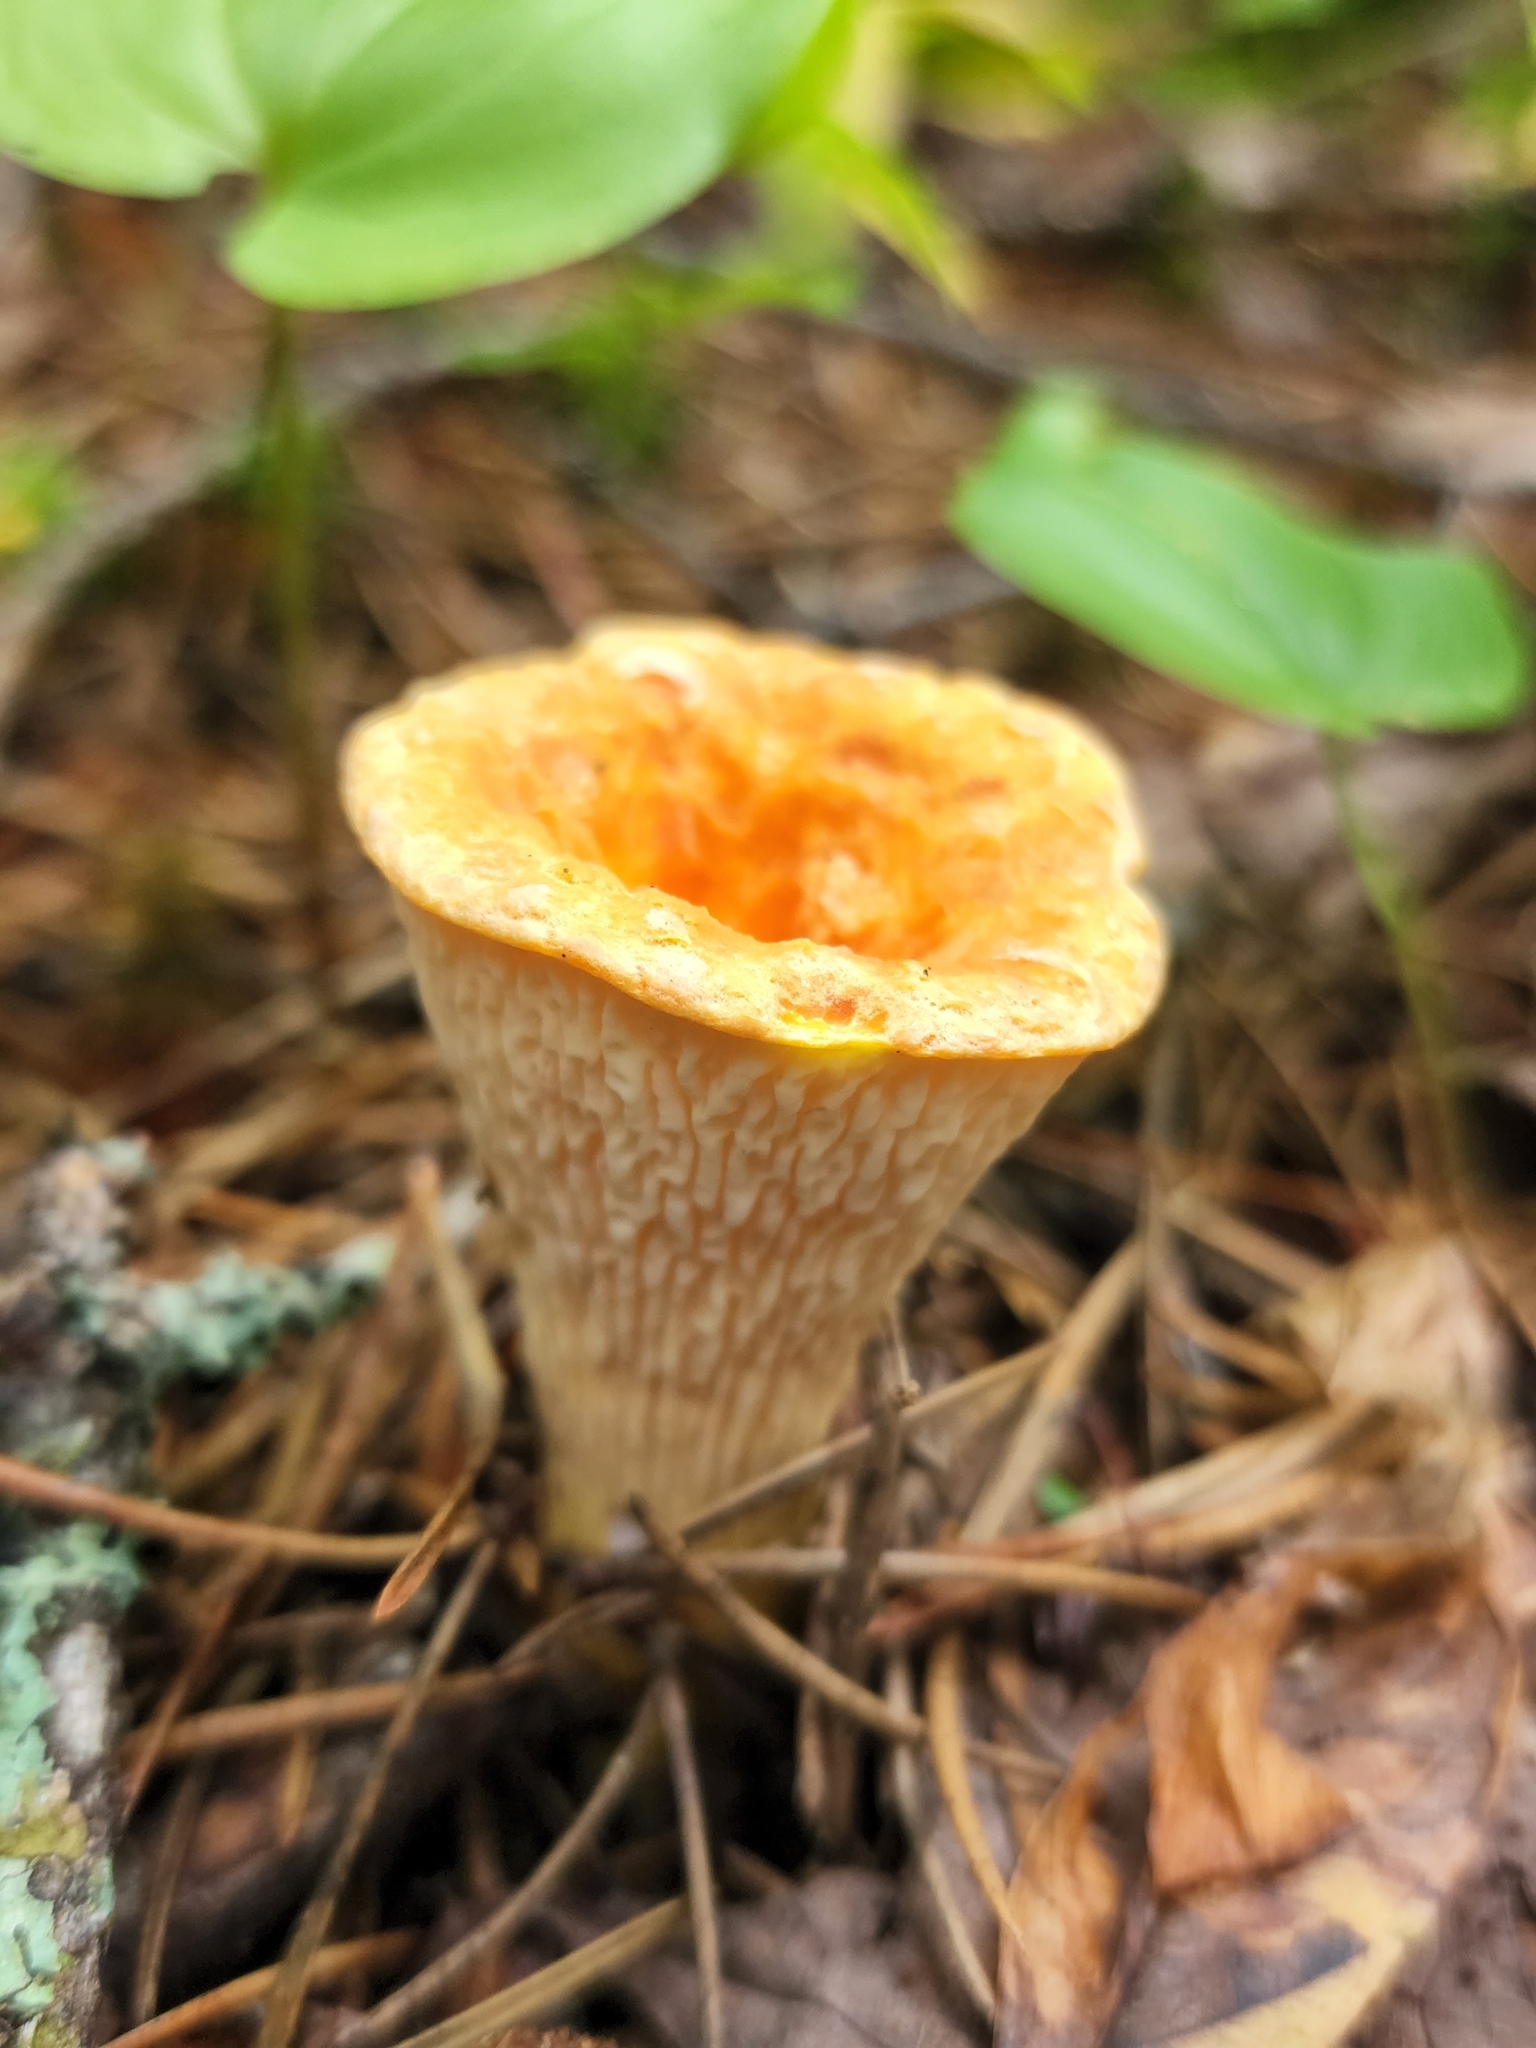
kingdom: Fungi
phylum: Basidiomycota
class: Agaricomycetes
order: Gomphales
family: Gomphaceae
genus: Turbinellus
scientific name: Turbinellus floccosus
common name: Scaly chanterelle
